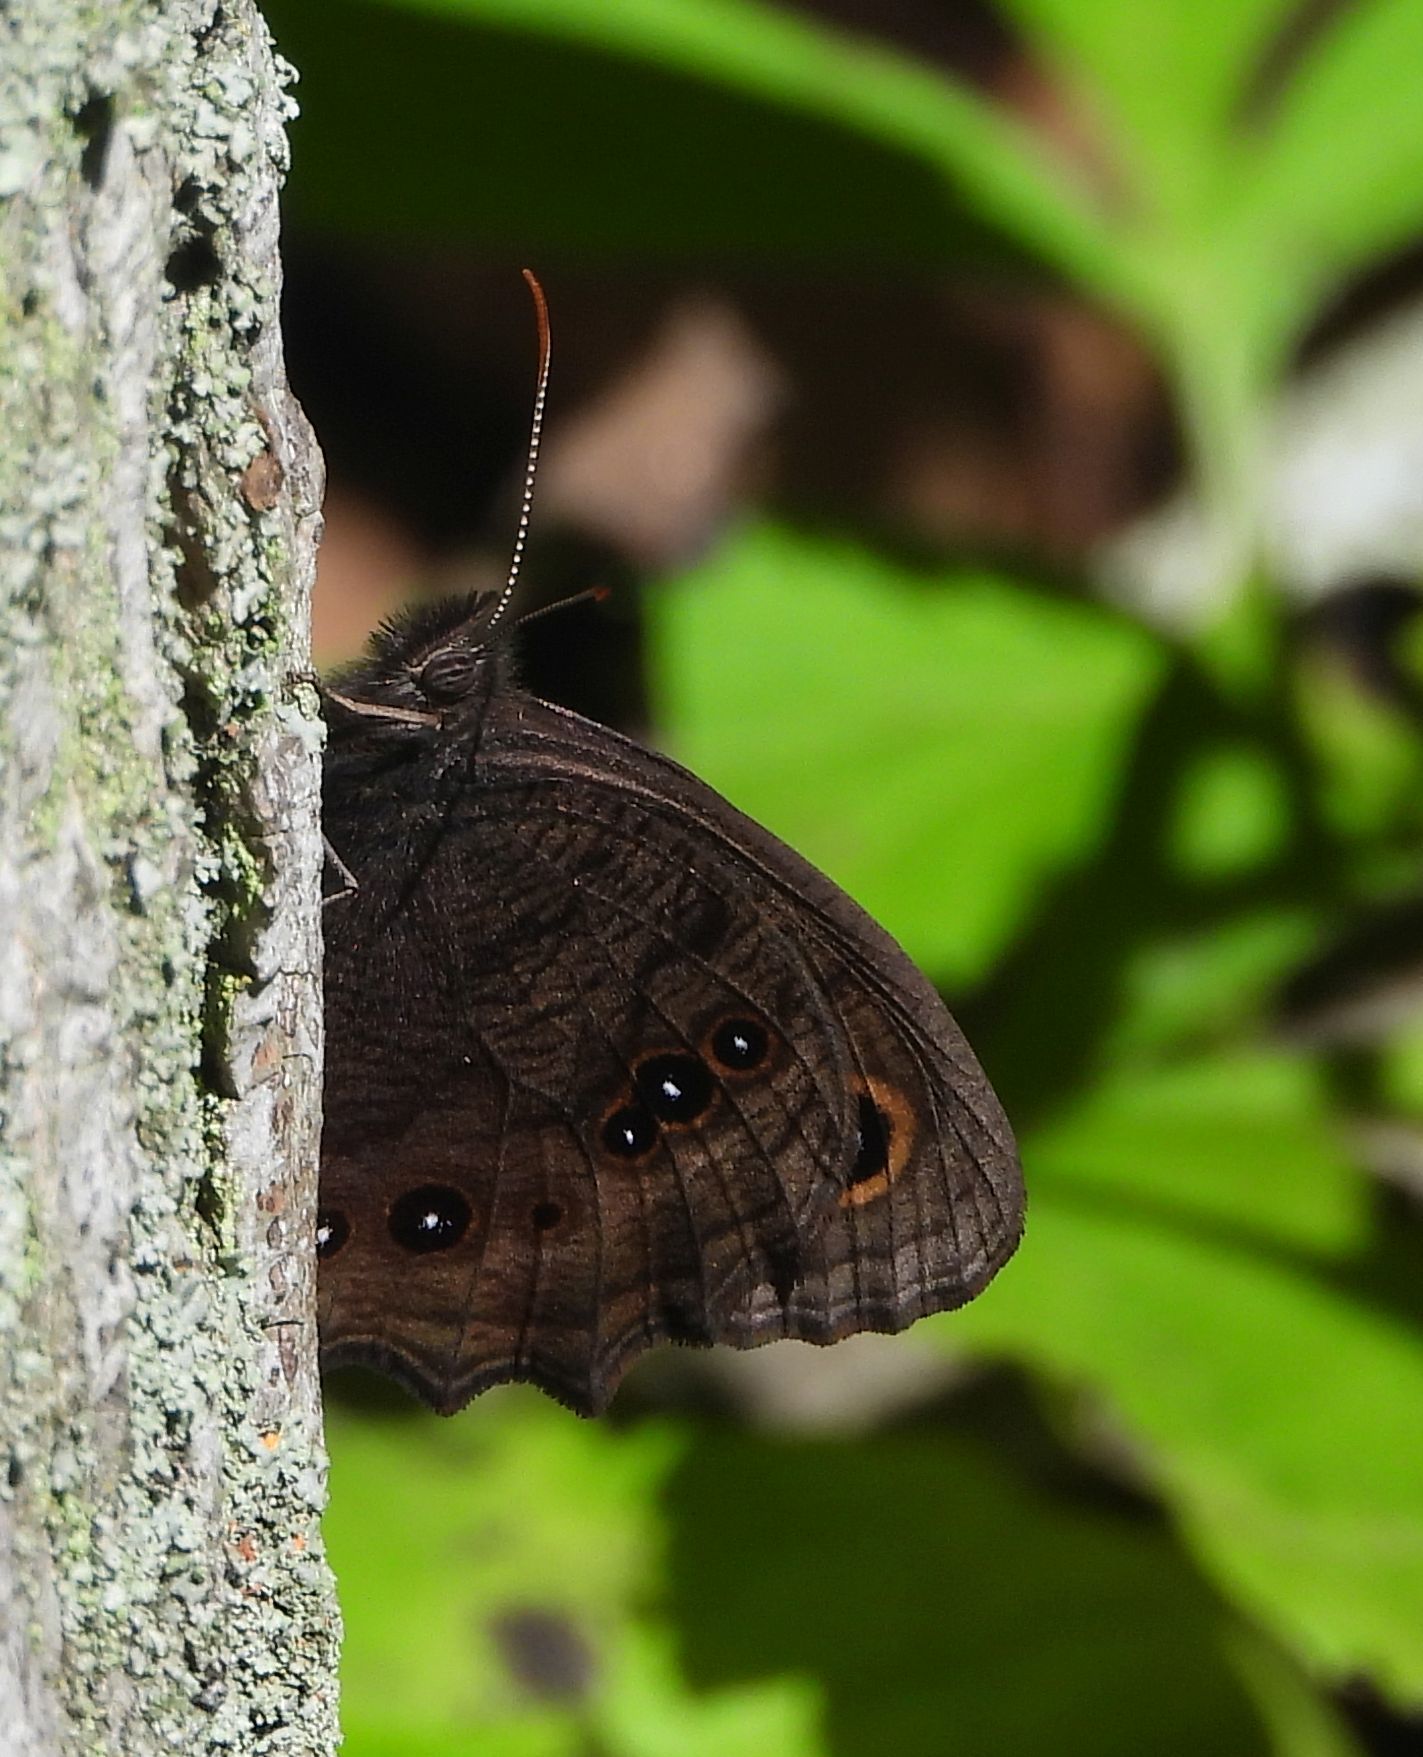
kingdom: Animalia
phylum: Arthropoda
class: Insecta
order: Lepidoptera
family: Nymphalidae
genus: Cercyonis
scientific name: Cercyonis pegala
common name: Common wood-nymph
